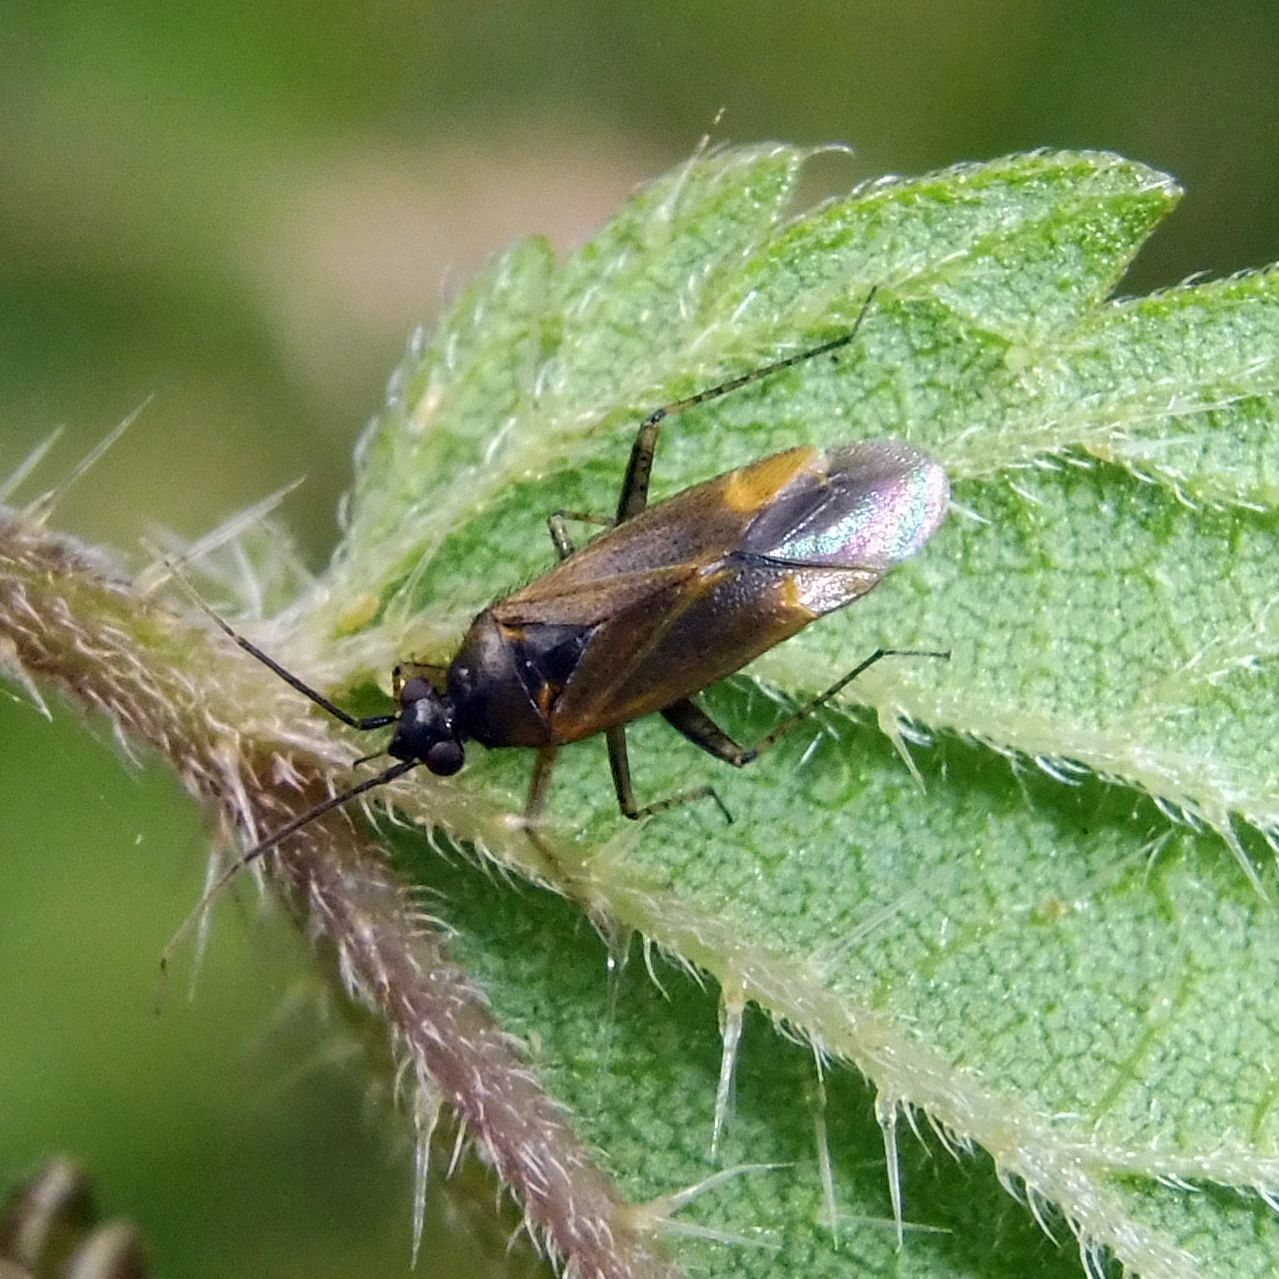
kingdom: Animalia
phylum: Arthropoda
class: Insecta
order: Hemiptera
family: Miridae
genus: Plagiognathus
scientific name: Plagiognathus arbustorum
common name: Plant bug
